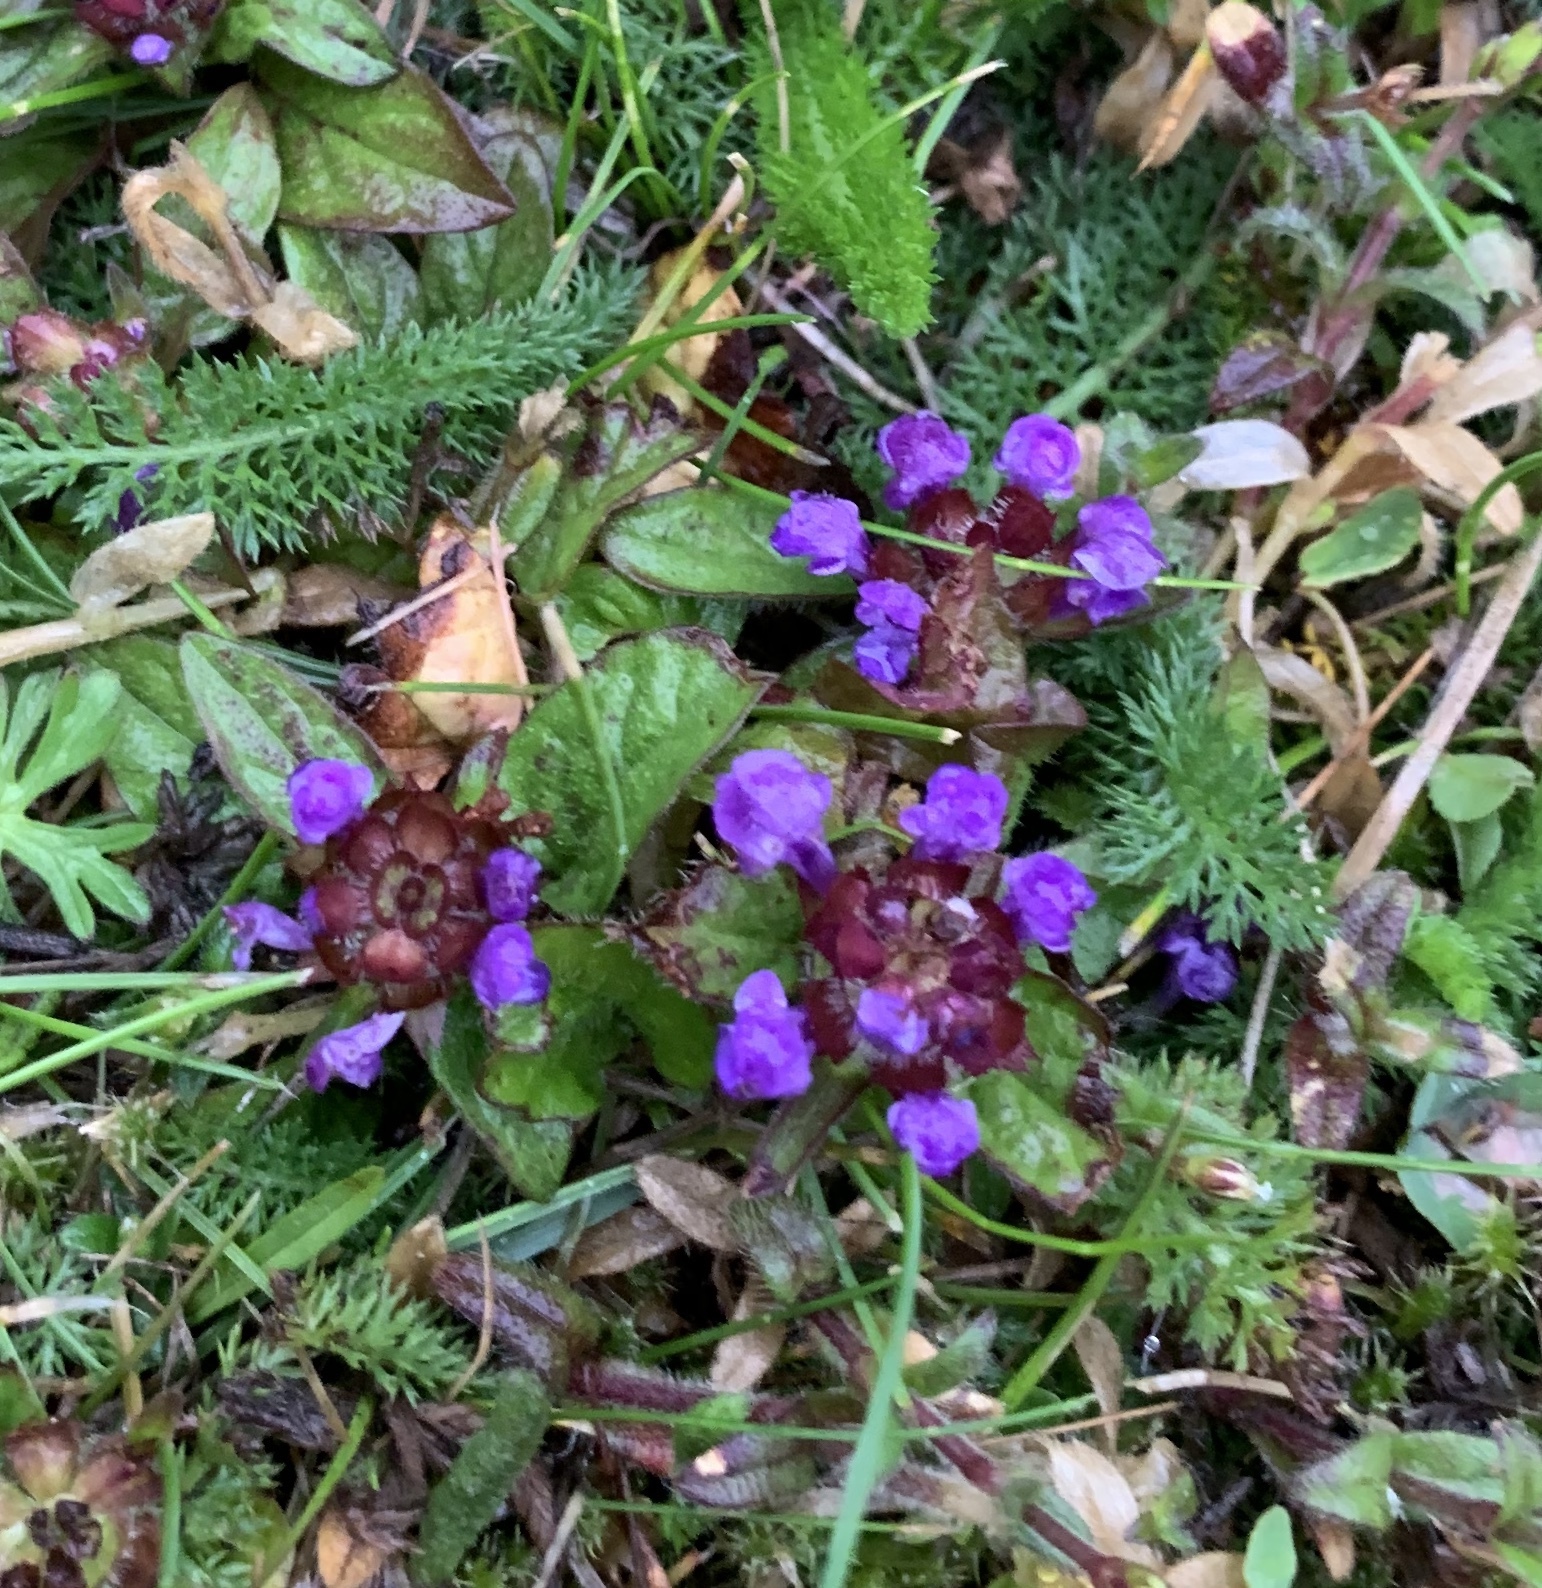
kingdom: Plantae
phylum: Tracheophyta
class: Magnoliopsida
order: Lamiales
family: Lamiaceae
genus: Prunella
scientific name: Prunella vulgaris
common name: Heal-all
